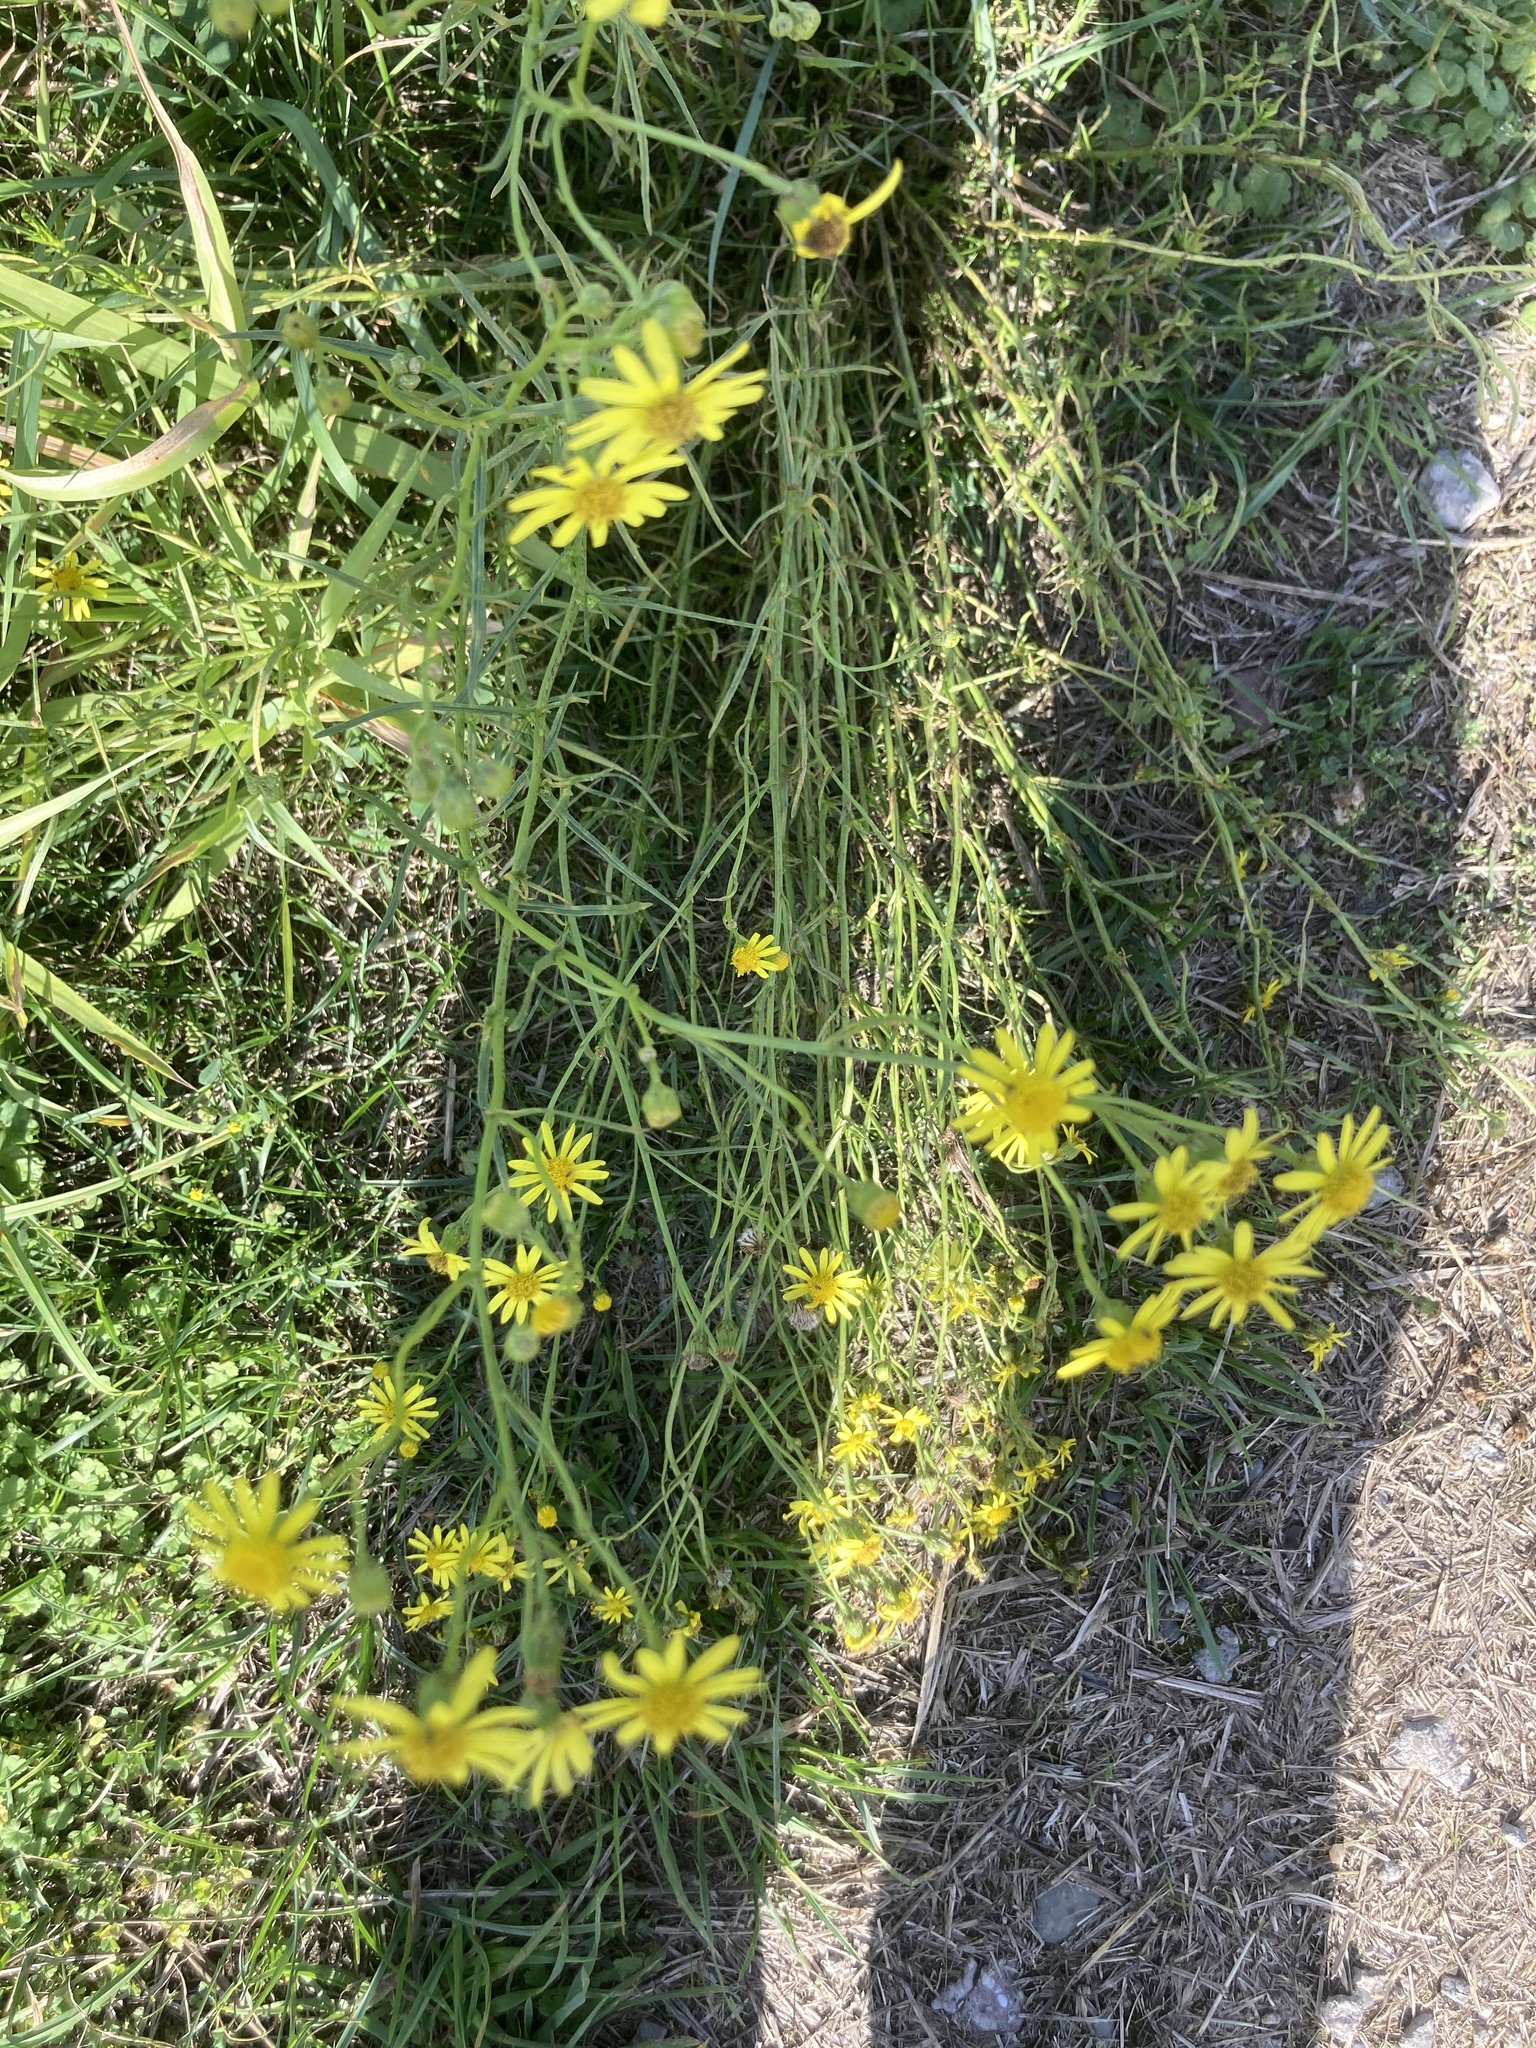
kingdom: Plantae
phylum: Tracheophyta
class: Magnoliopsida
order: Asterales
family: Asteraceae
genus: Senecio
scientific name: Senecio inaequidens
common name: Narrow-leaved ragwort
